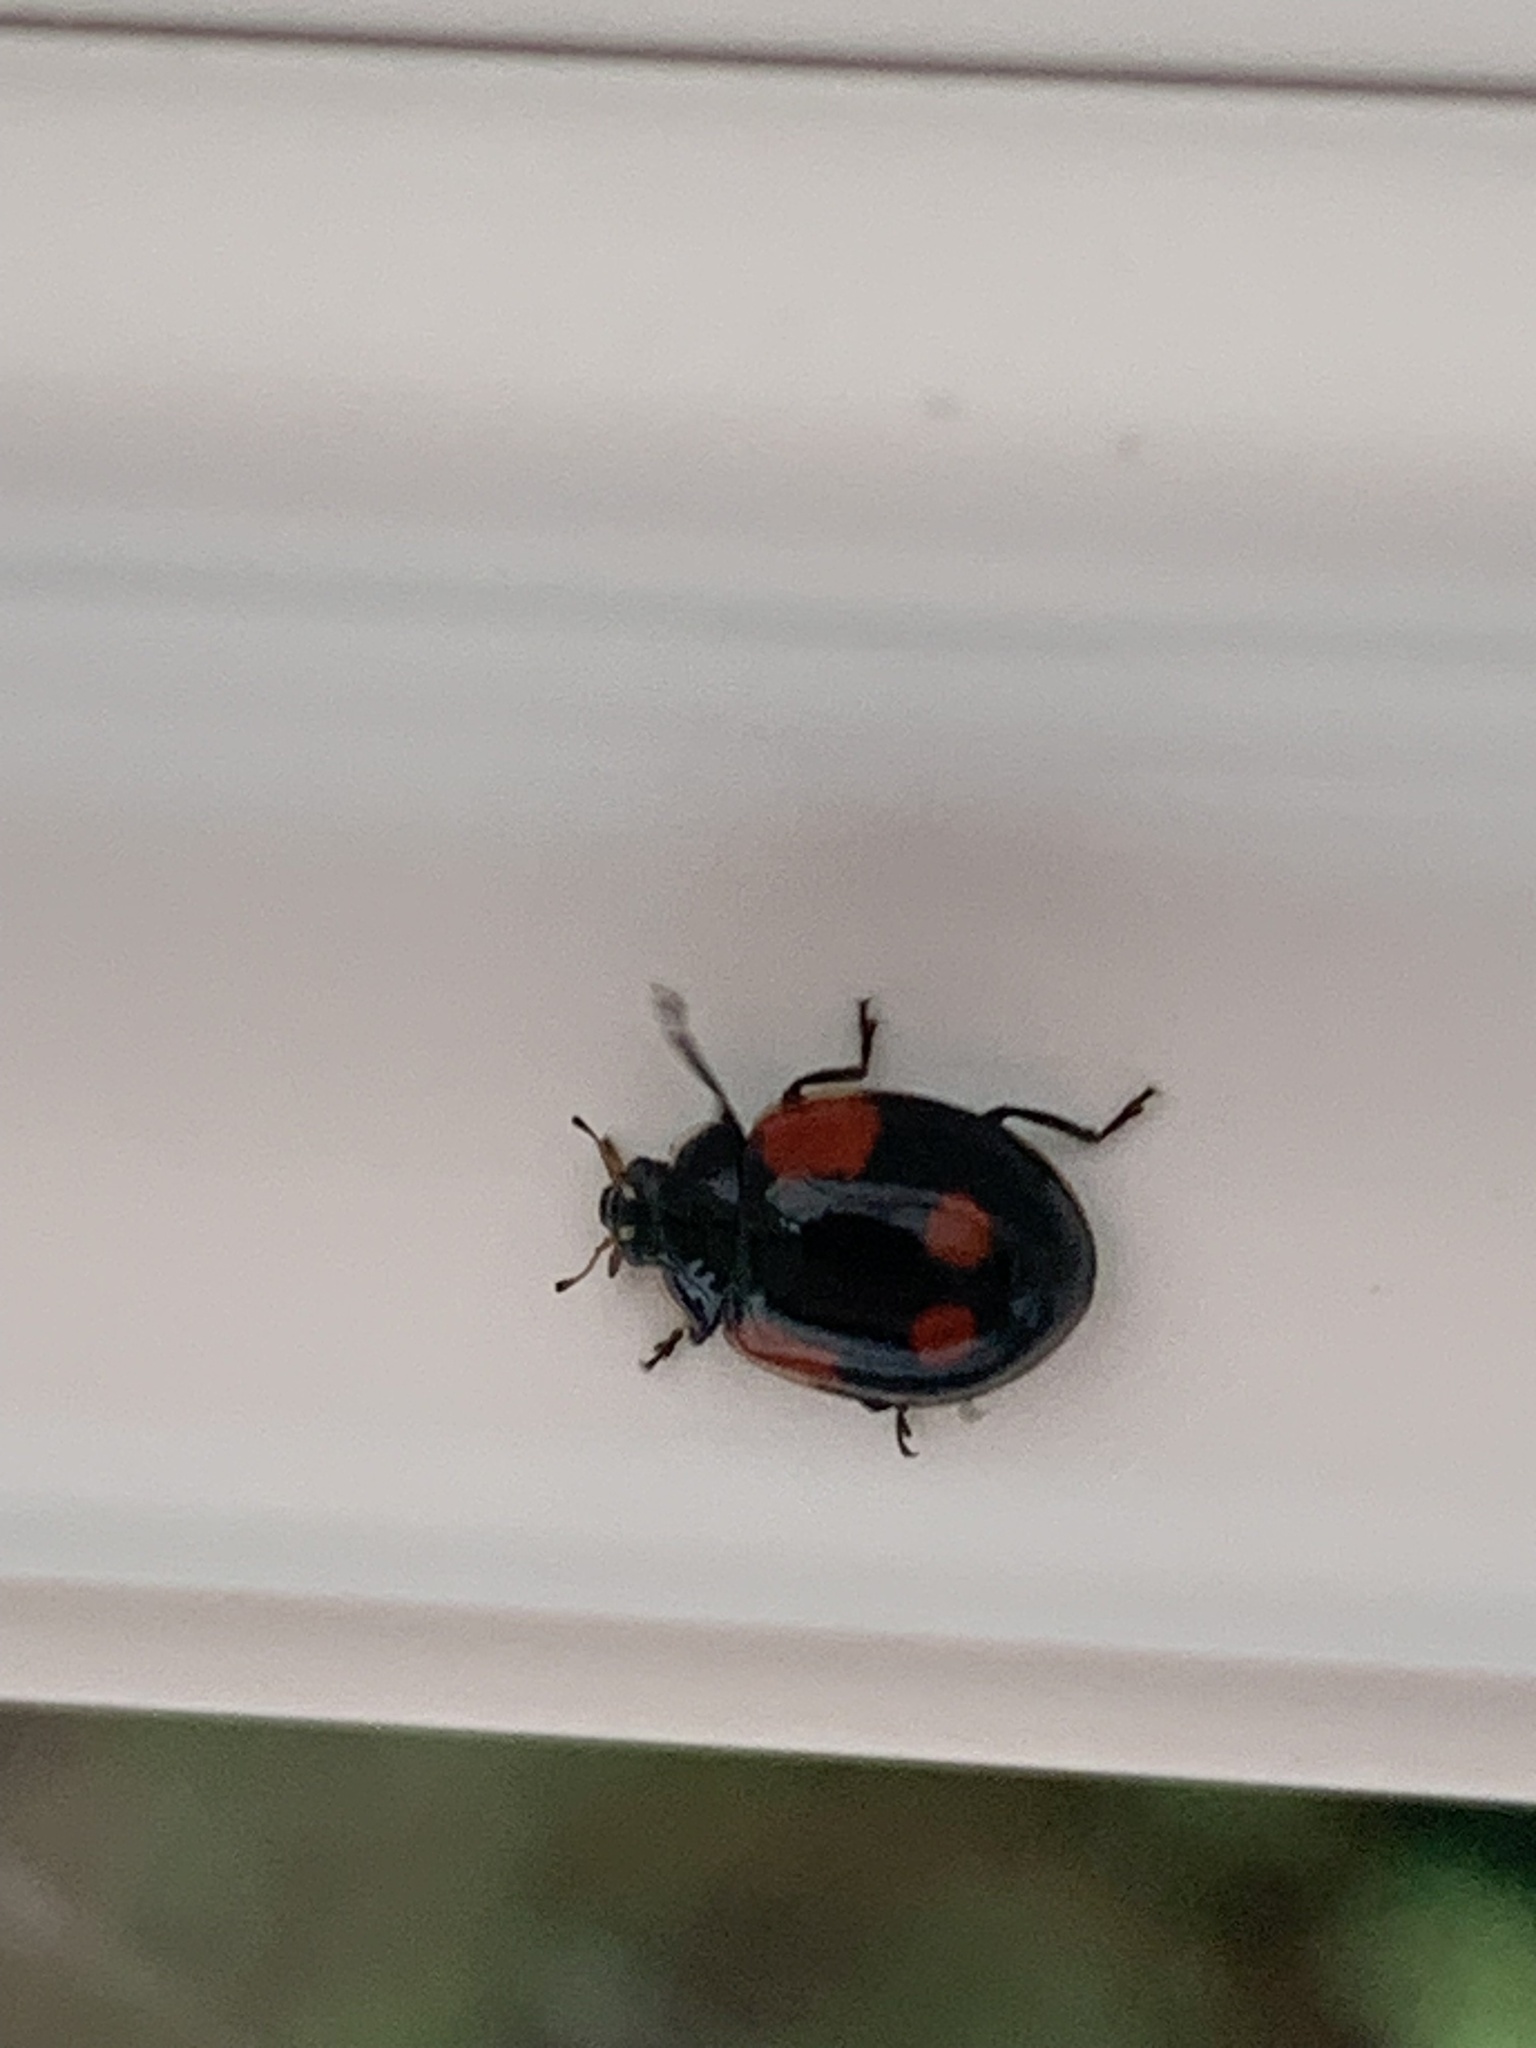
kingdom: Animalia
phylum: Arthropoda
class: Insecta
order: Coleoptera
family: Coccinellidae
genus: Adalia
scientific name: Adalia bipunctata
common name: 2-spot ladybird
